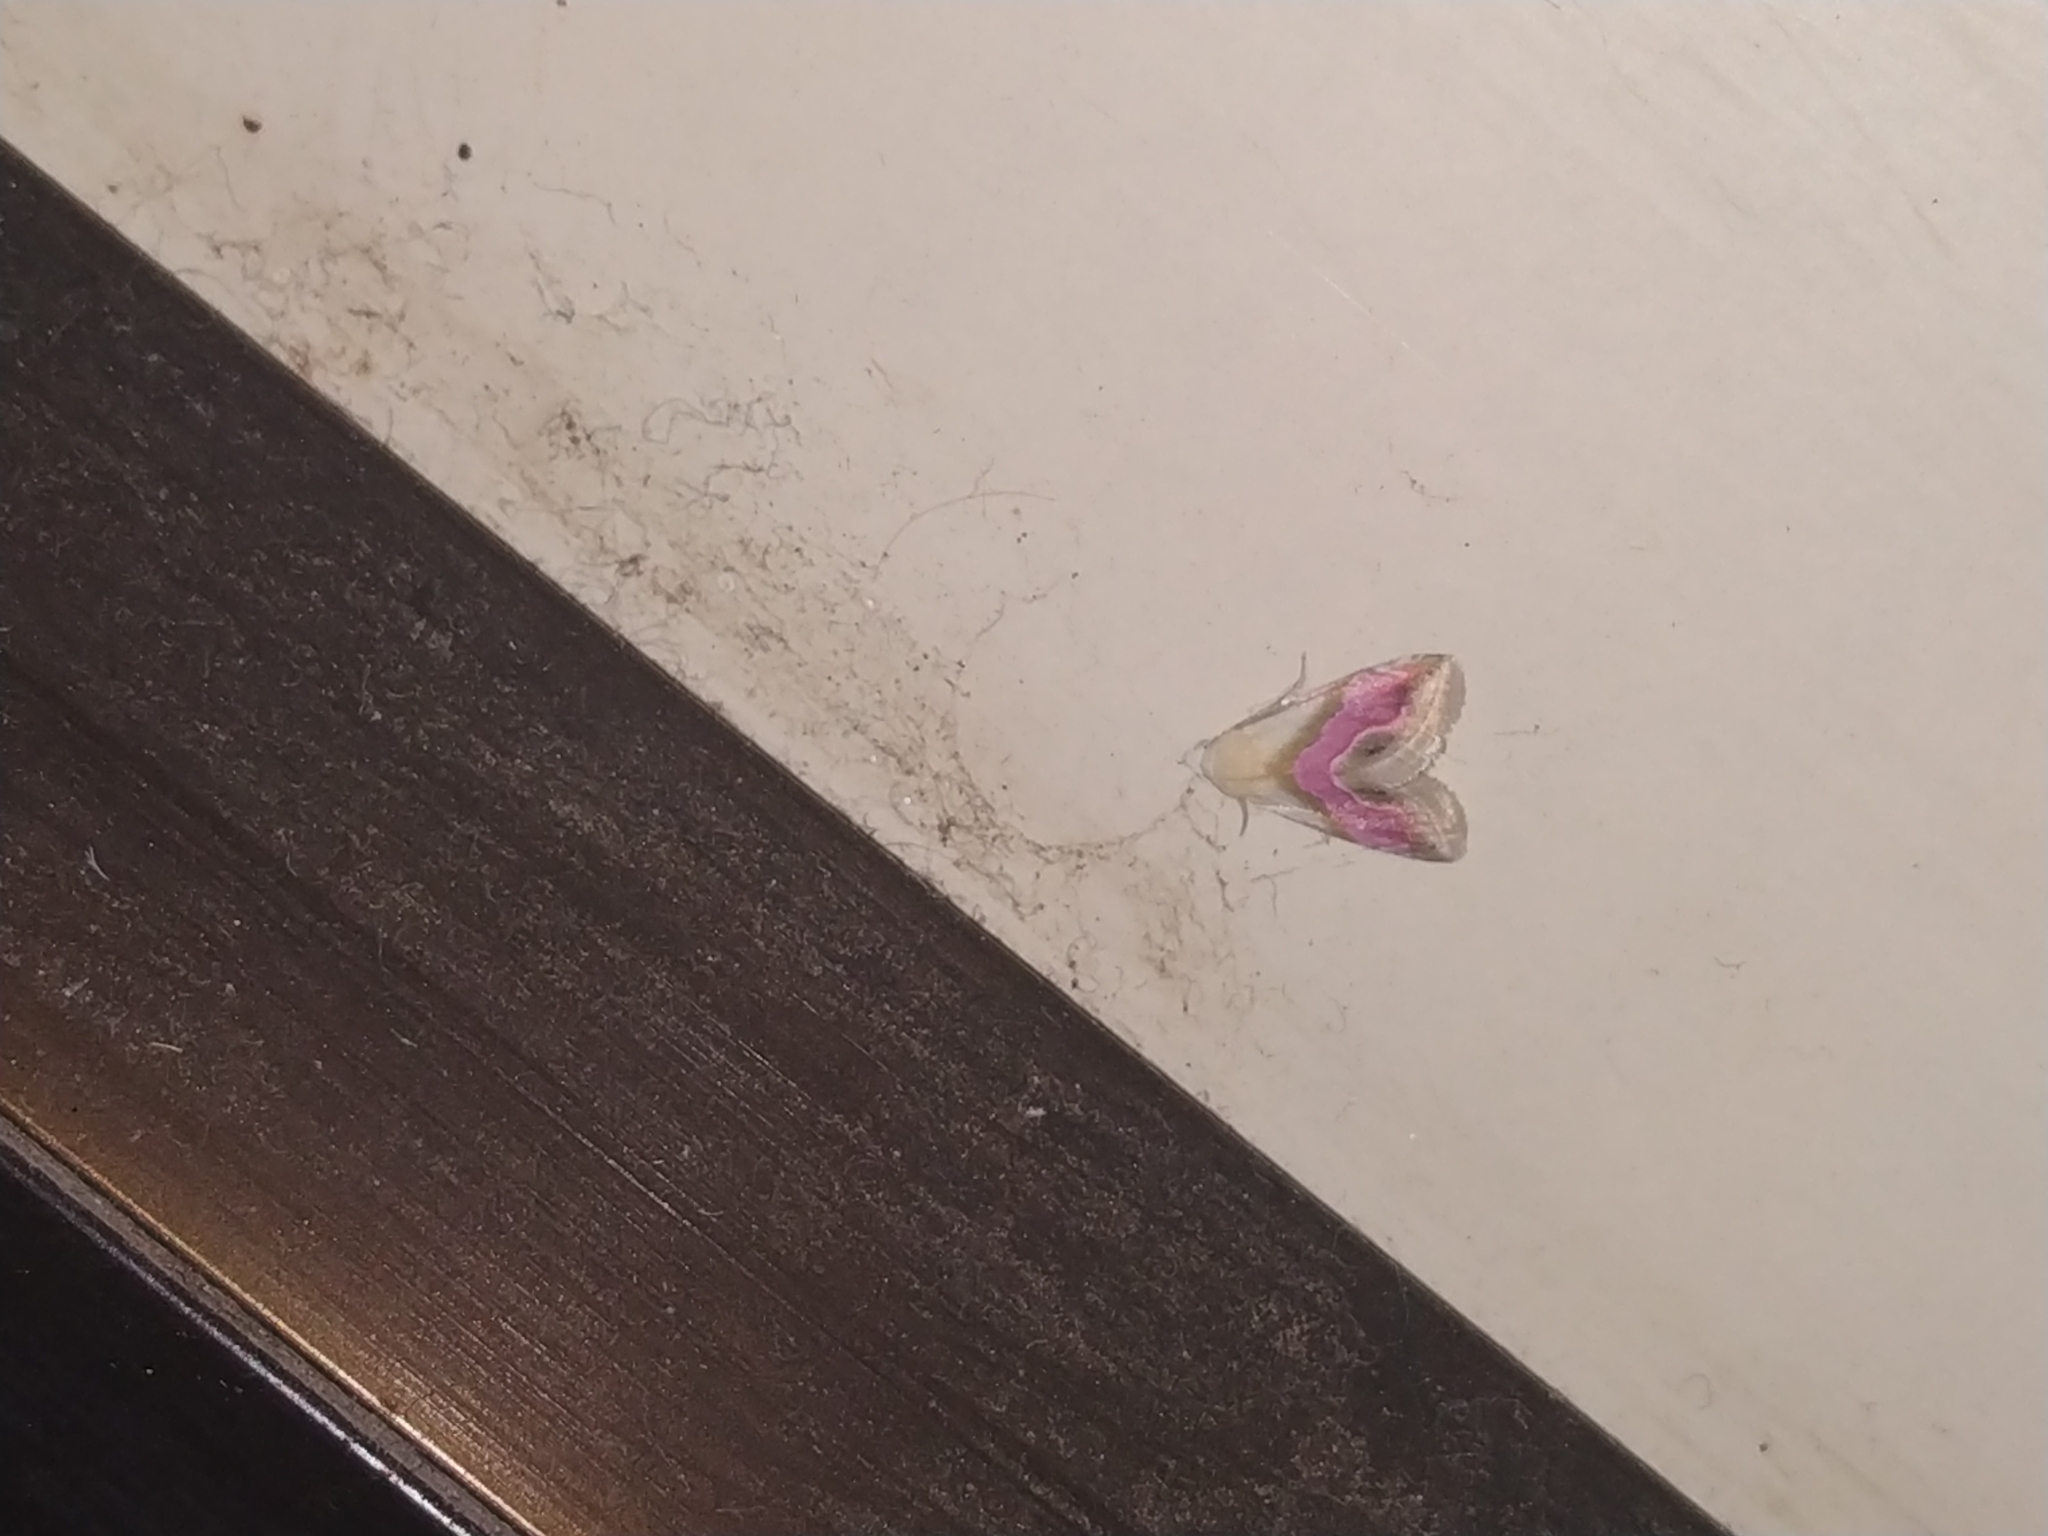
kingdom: Animalia
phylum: Arthropoda
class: Insecta
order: Lepidoptera
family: Noctuidae
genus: Eublemma
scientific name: Eublemma roseana
